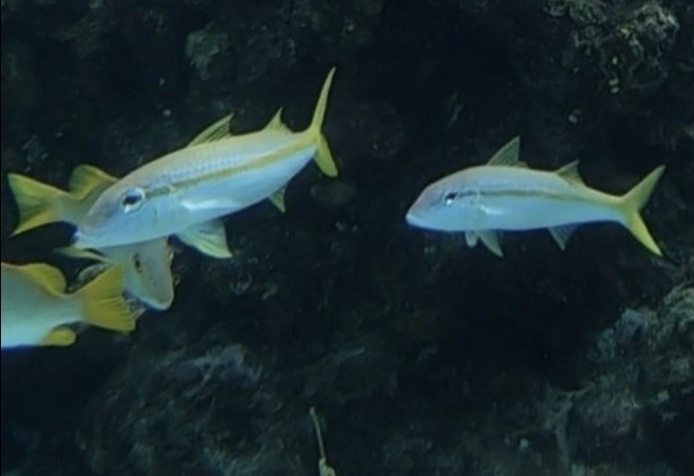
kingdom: Animalia
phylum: Chordata
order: Perciformes
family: Mullidae
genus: Mulloidichthys
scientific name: Mulloidichthys martinicus
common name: Yellow goatfish
